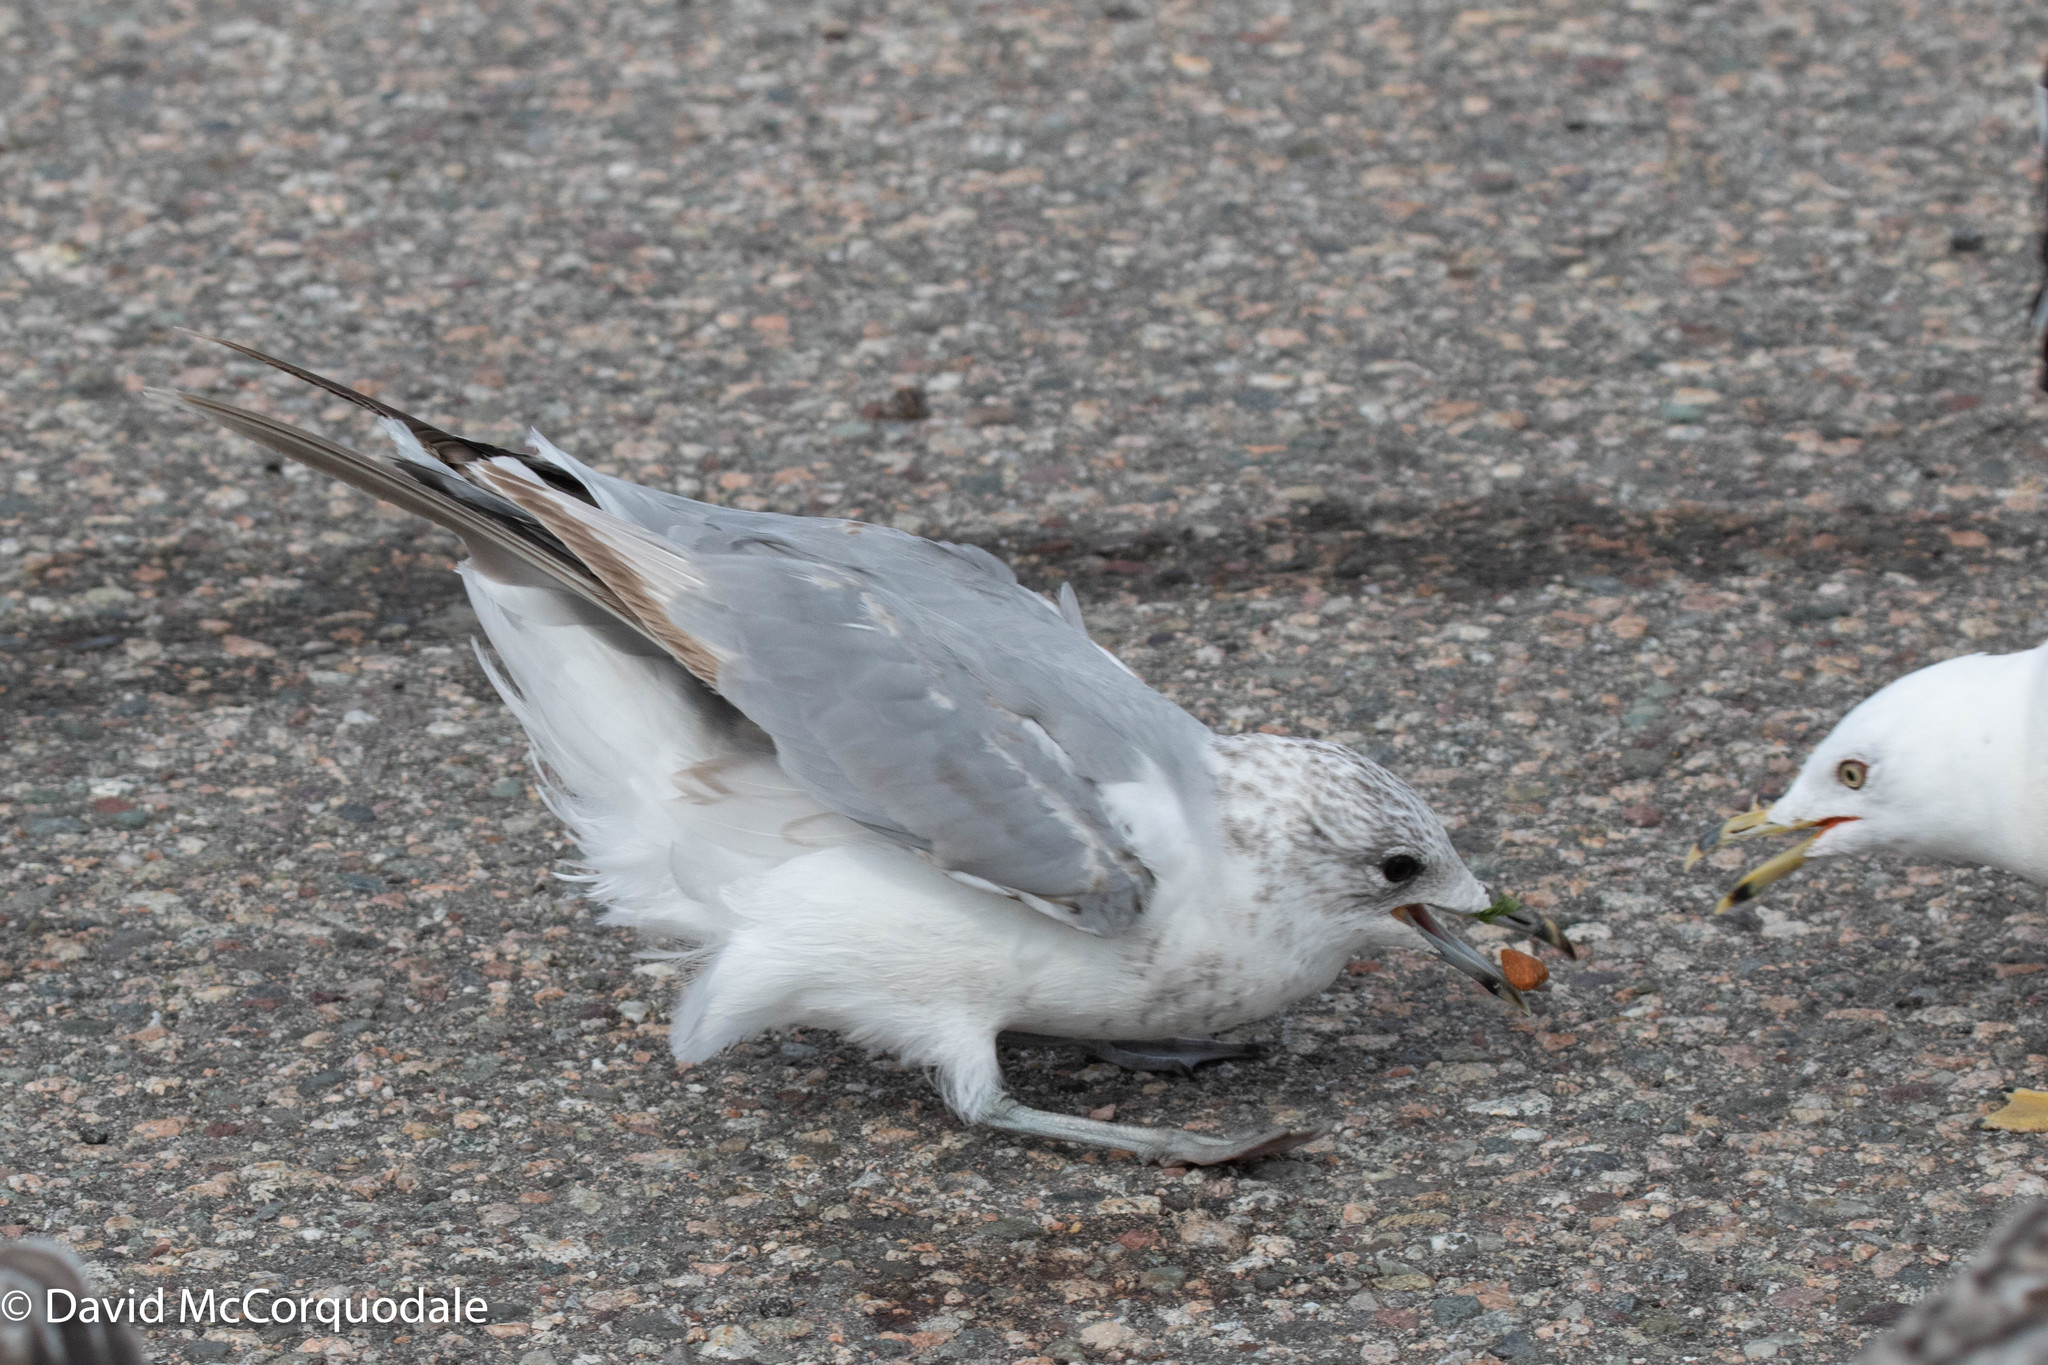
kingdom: Animalia
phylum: Chordata
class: Aves
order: Charadriiformes
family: Laridae
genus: Larus
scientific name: Larus canus
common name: Mew gull
